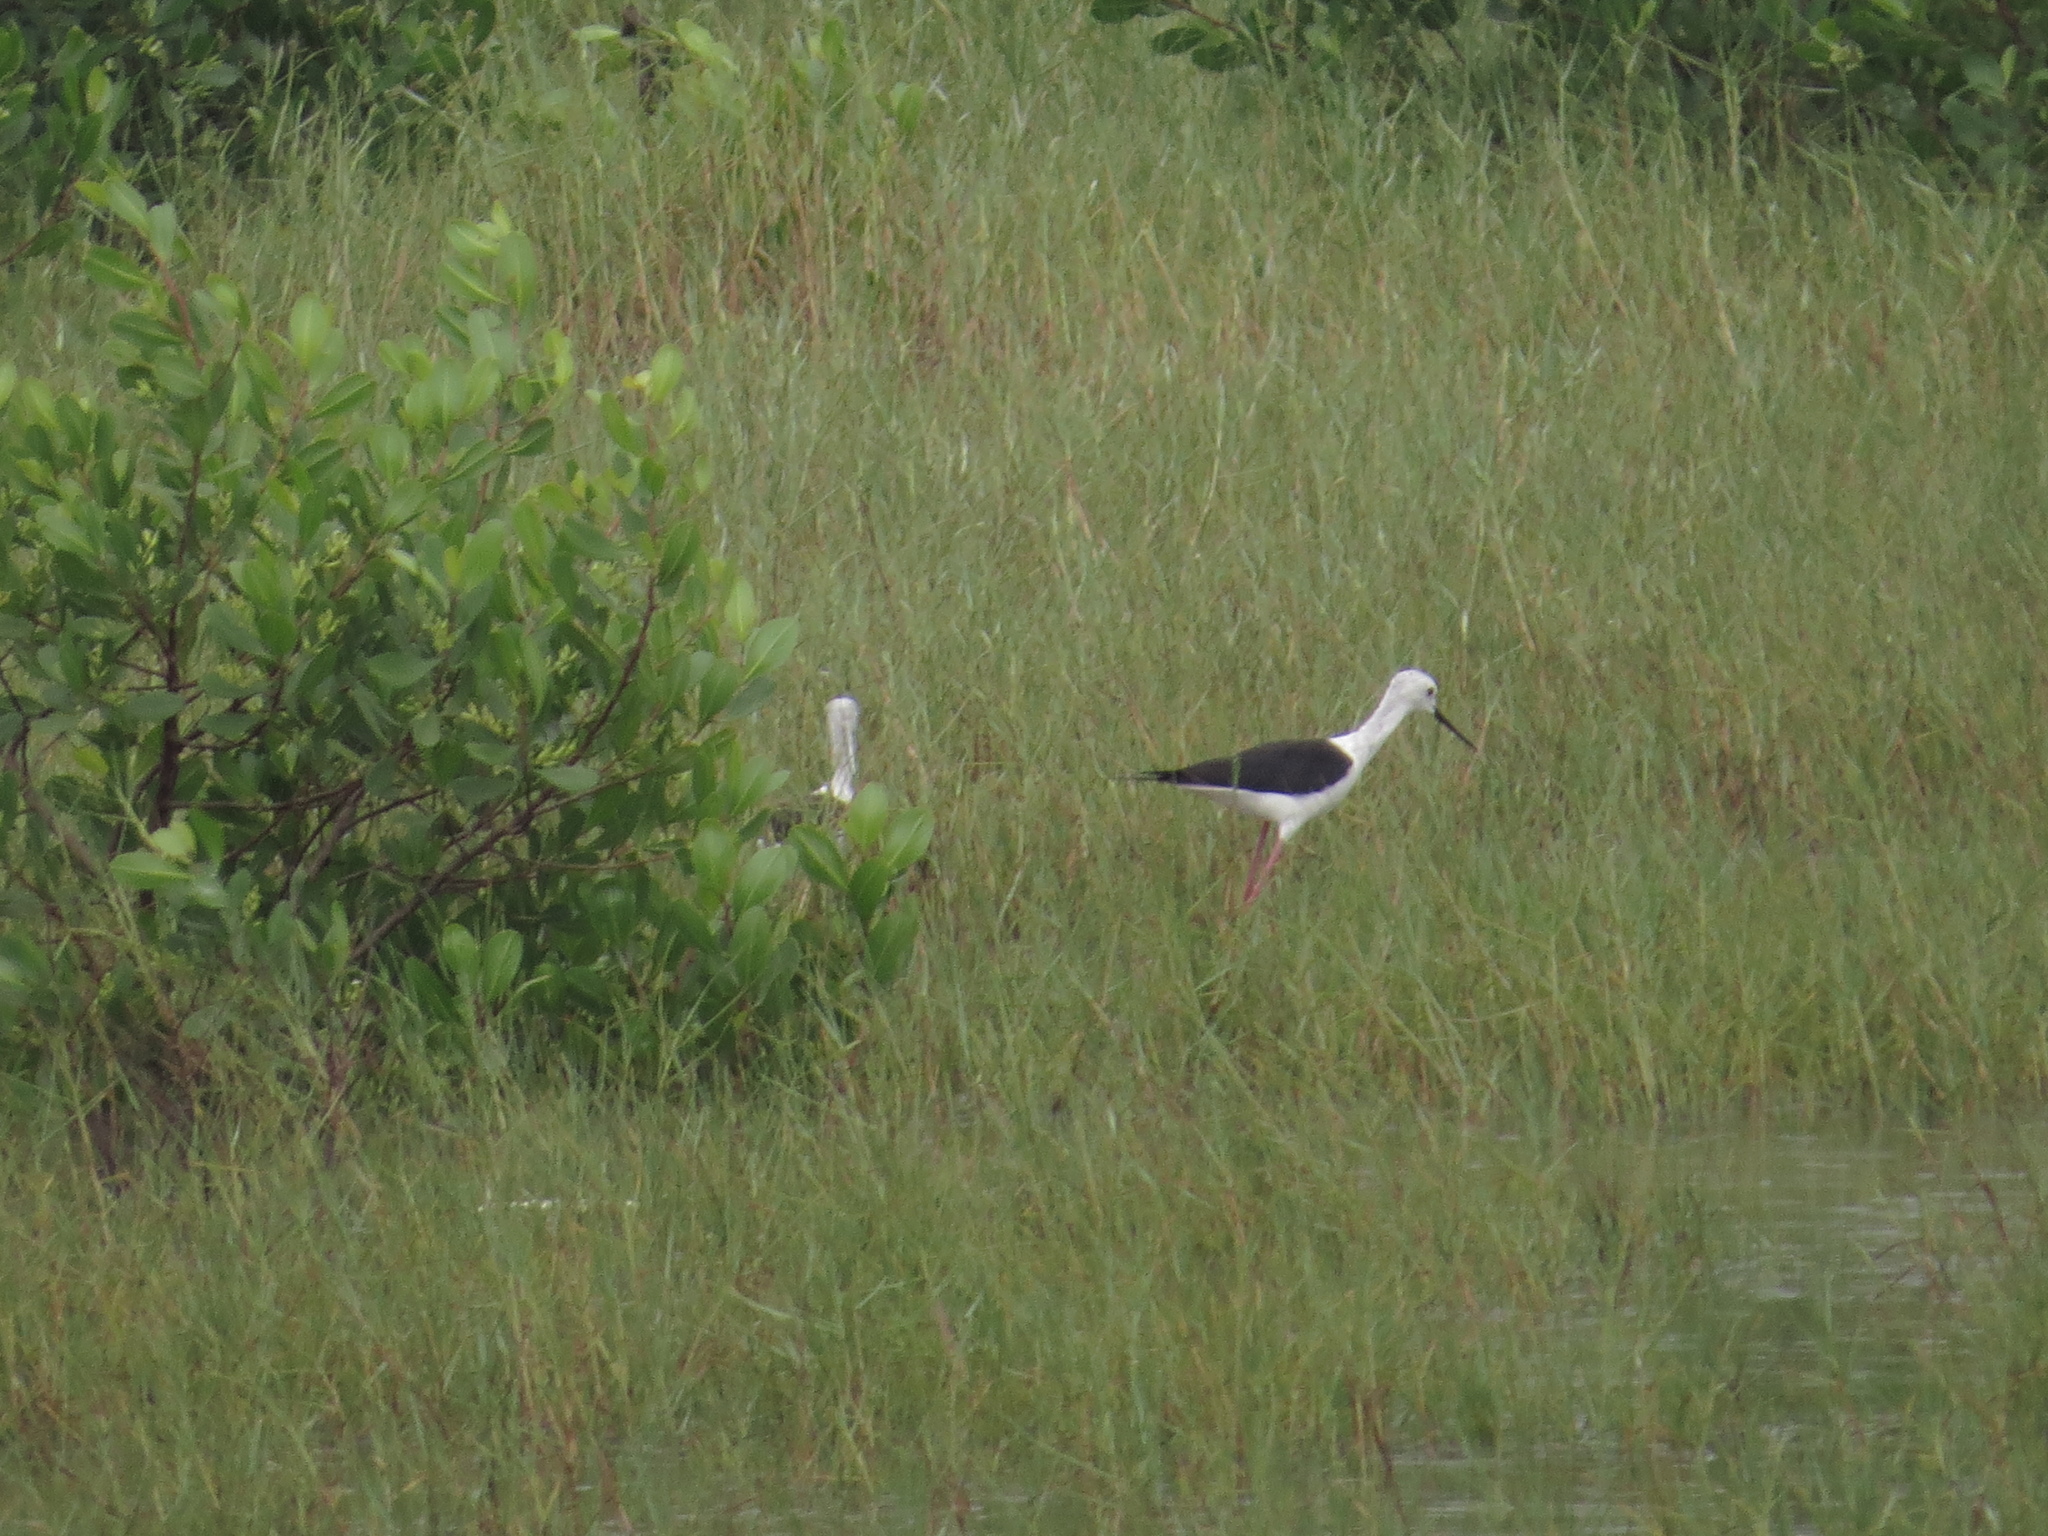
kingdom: Animalia
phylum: Chordata
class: Aves
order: Charadriiformes
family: Recurvirostridae
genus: Himantopus
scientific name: Himantopus himantopus
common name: Black-winged stilt
